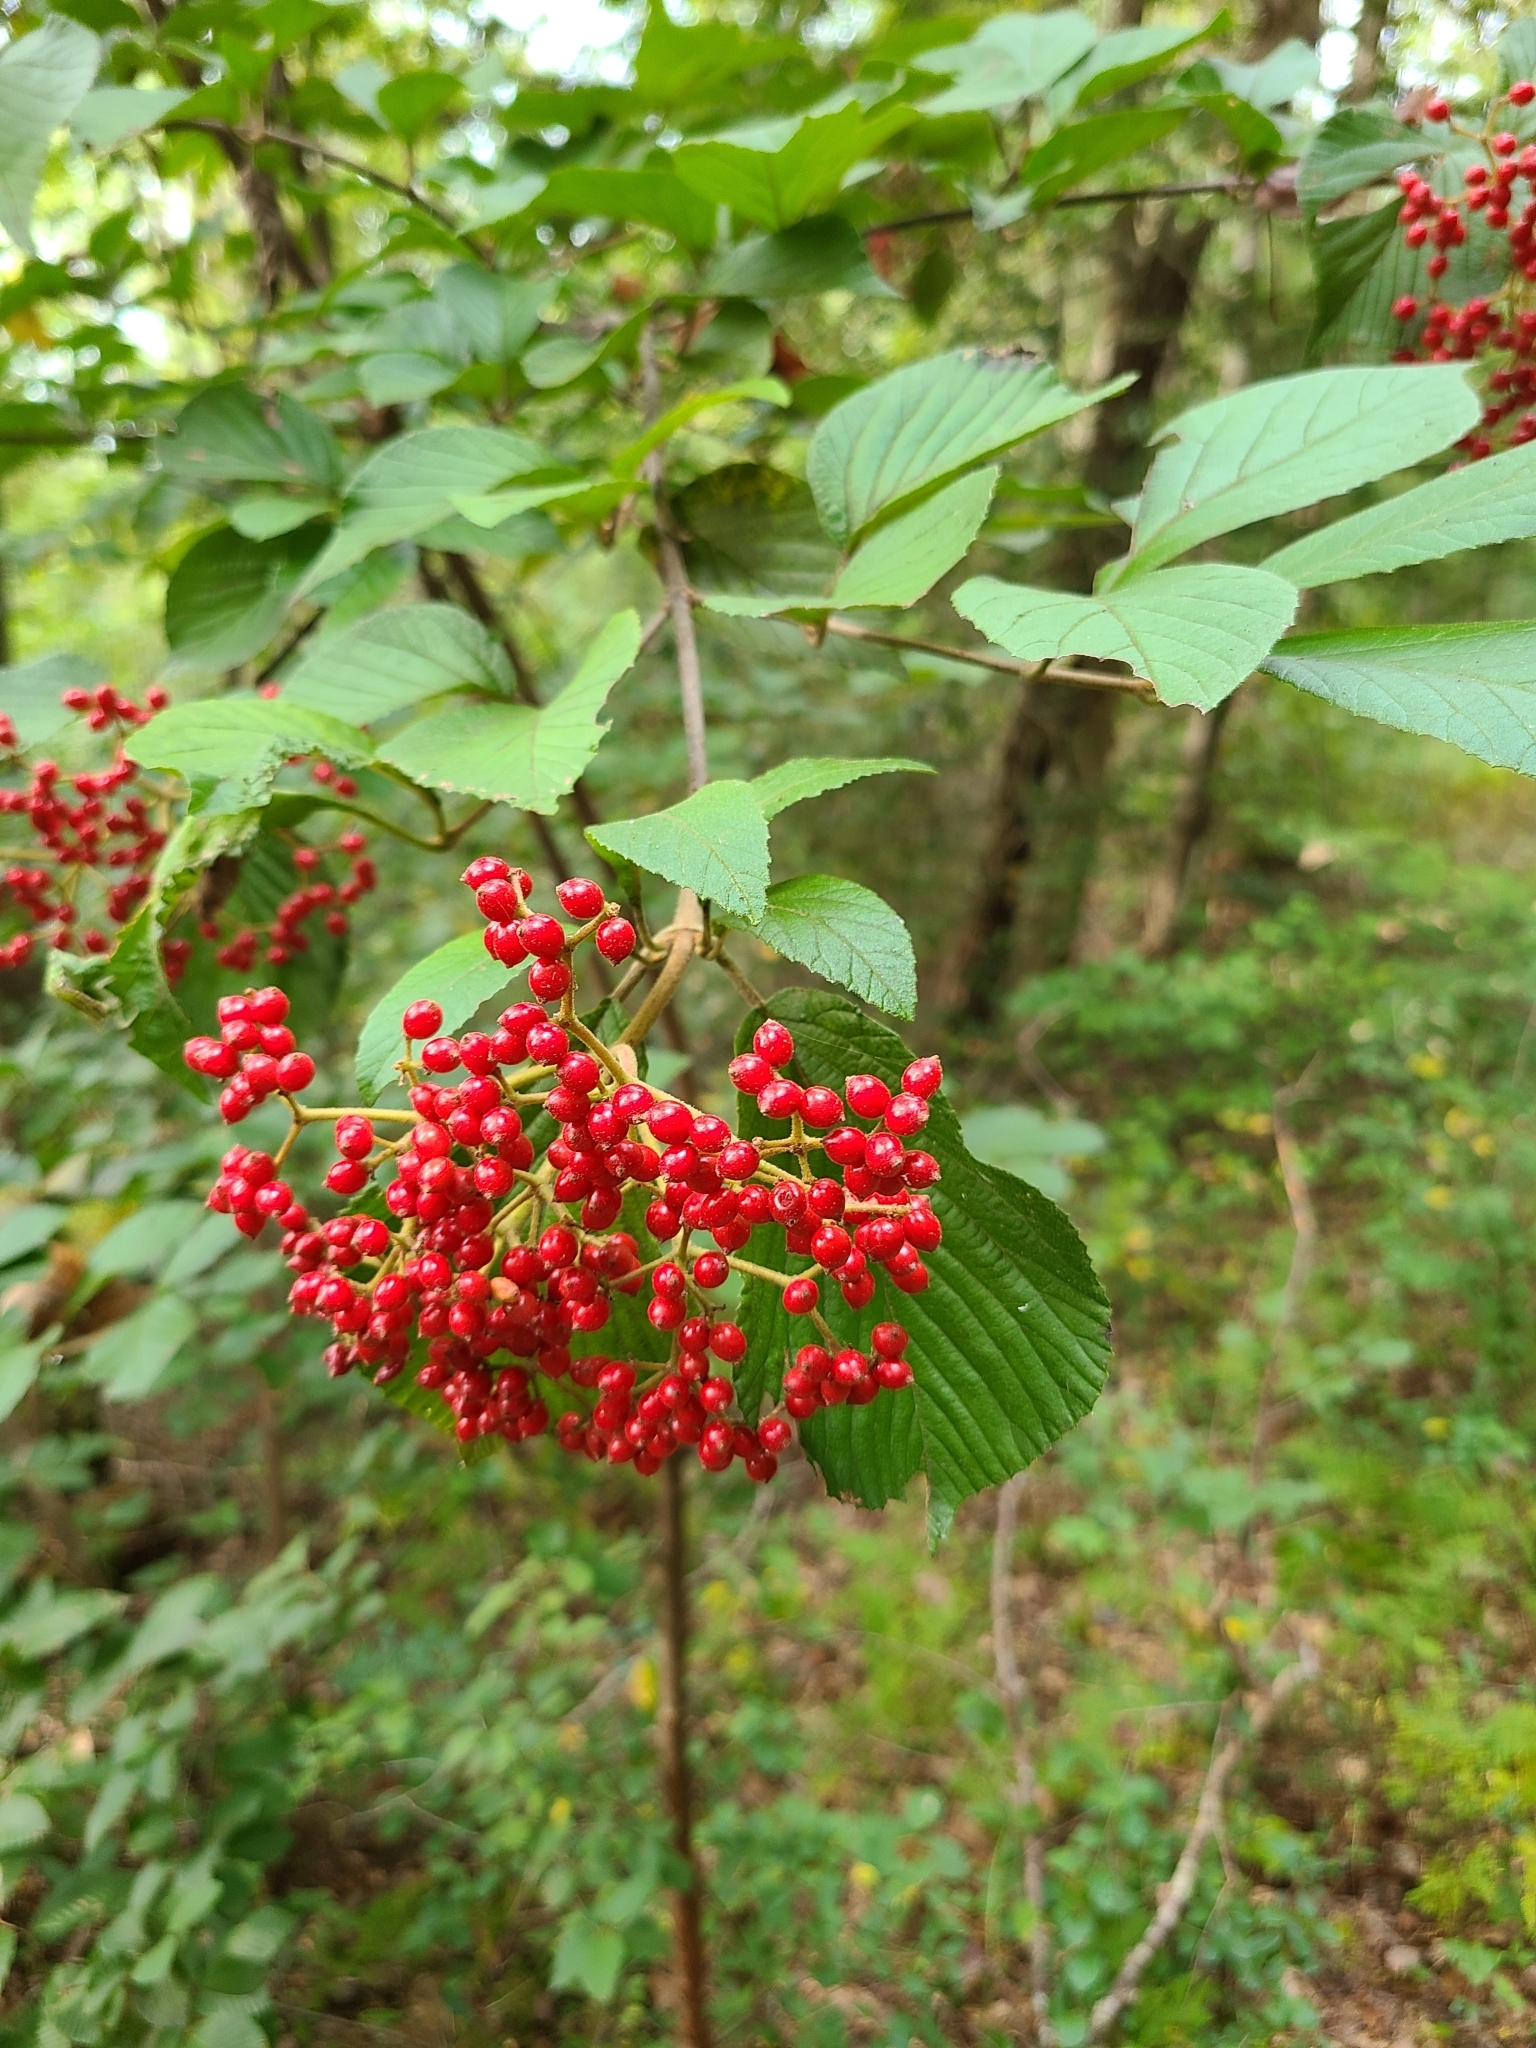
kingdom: Plantae
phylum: Tracheophyta
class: Magnoliopsida
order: Dipsacales
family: Viburnaceae
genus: Viburnum
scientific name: Viburnum dilatatum
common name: Linden arrowwood
